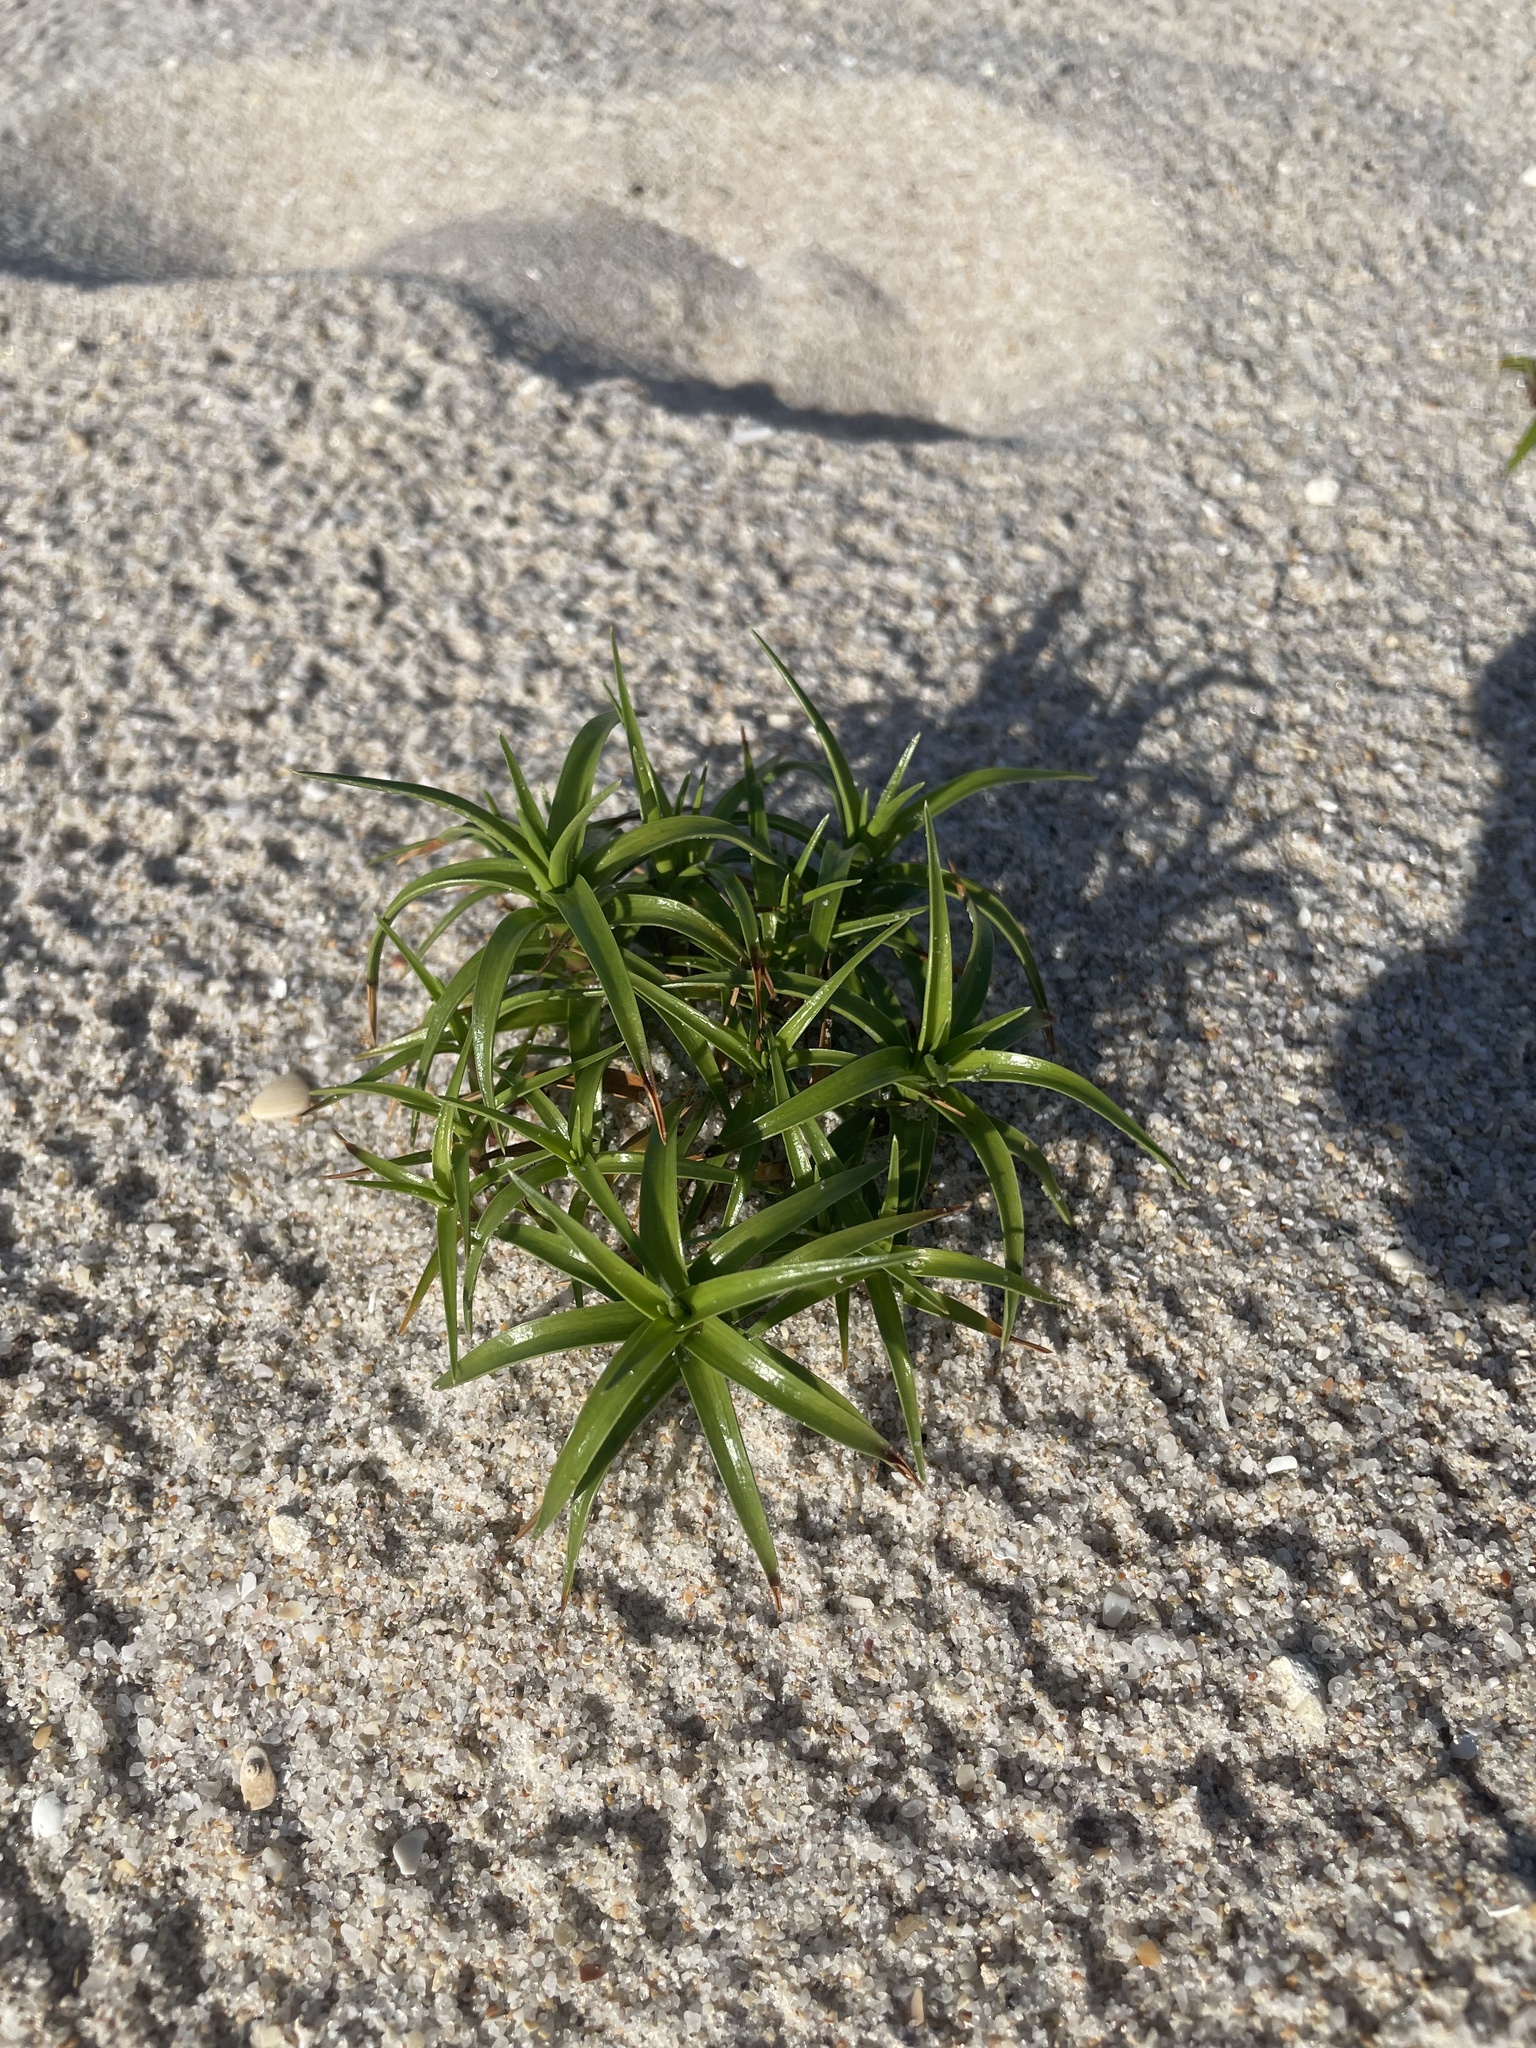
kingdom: Plantae
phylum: Tracheophyta
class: Liliopsida
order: Poales
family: Cyperaceae
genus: Cyperus
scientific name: Cyperus pedunculatus
